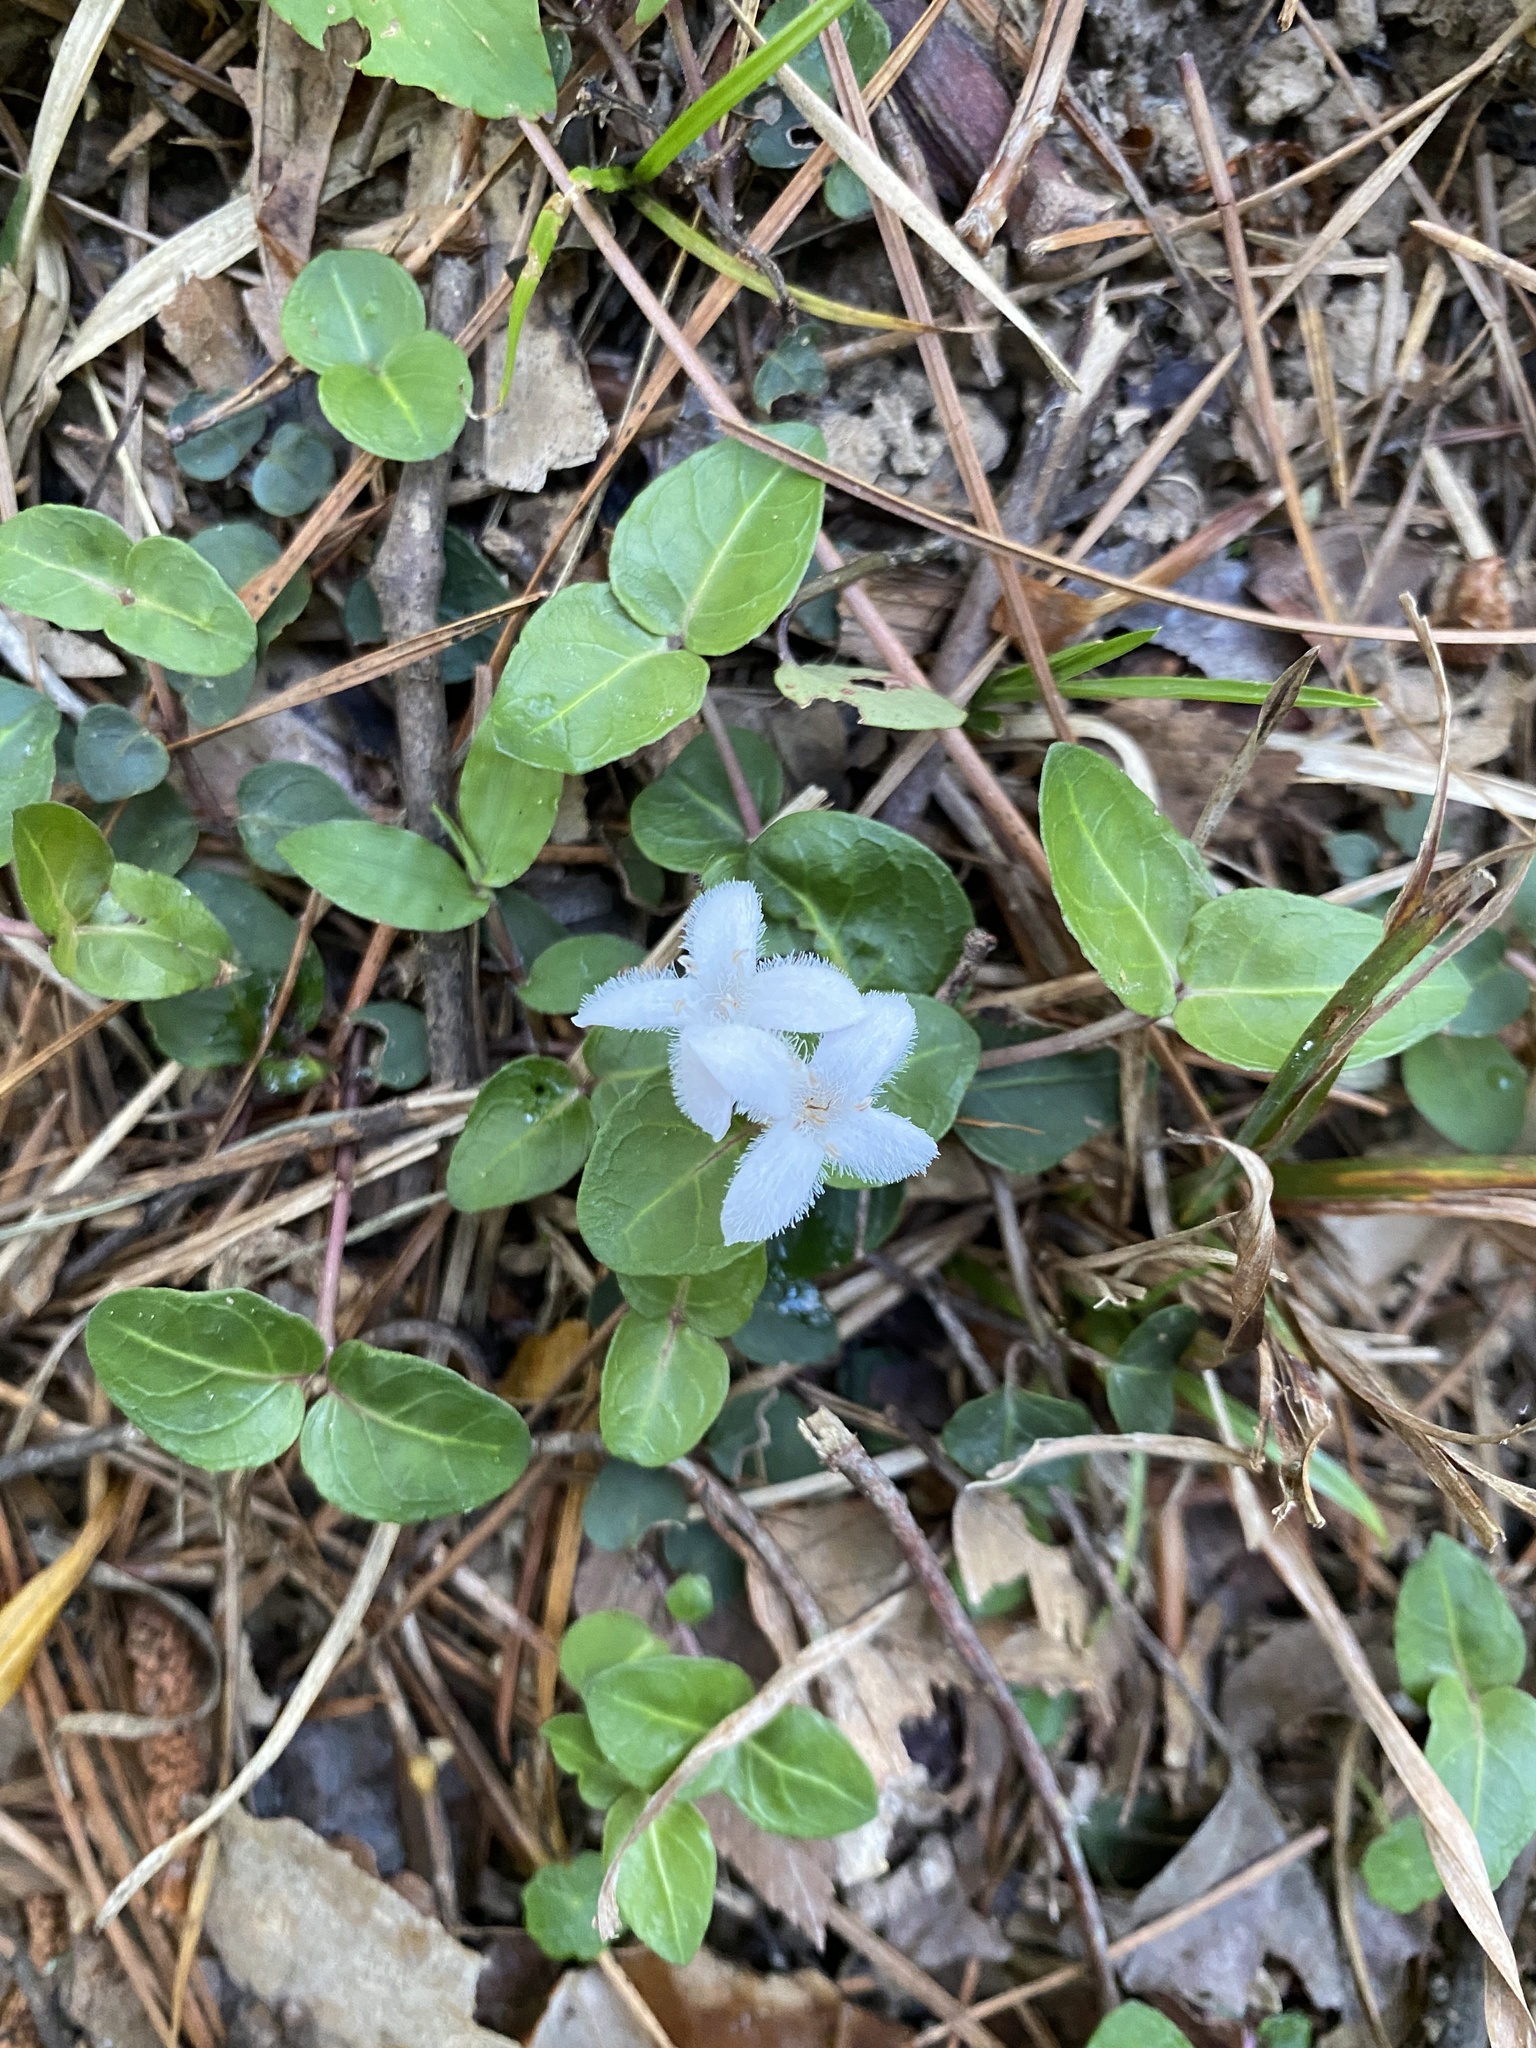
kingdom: Plantae
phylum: Tracheophyta
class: Magnoliopsida
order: Gentianales
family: Rubiaceae
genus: Mitchella
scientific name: Mitchella repens
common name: Partridge-berry
